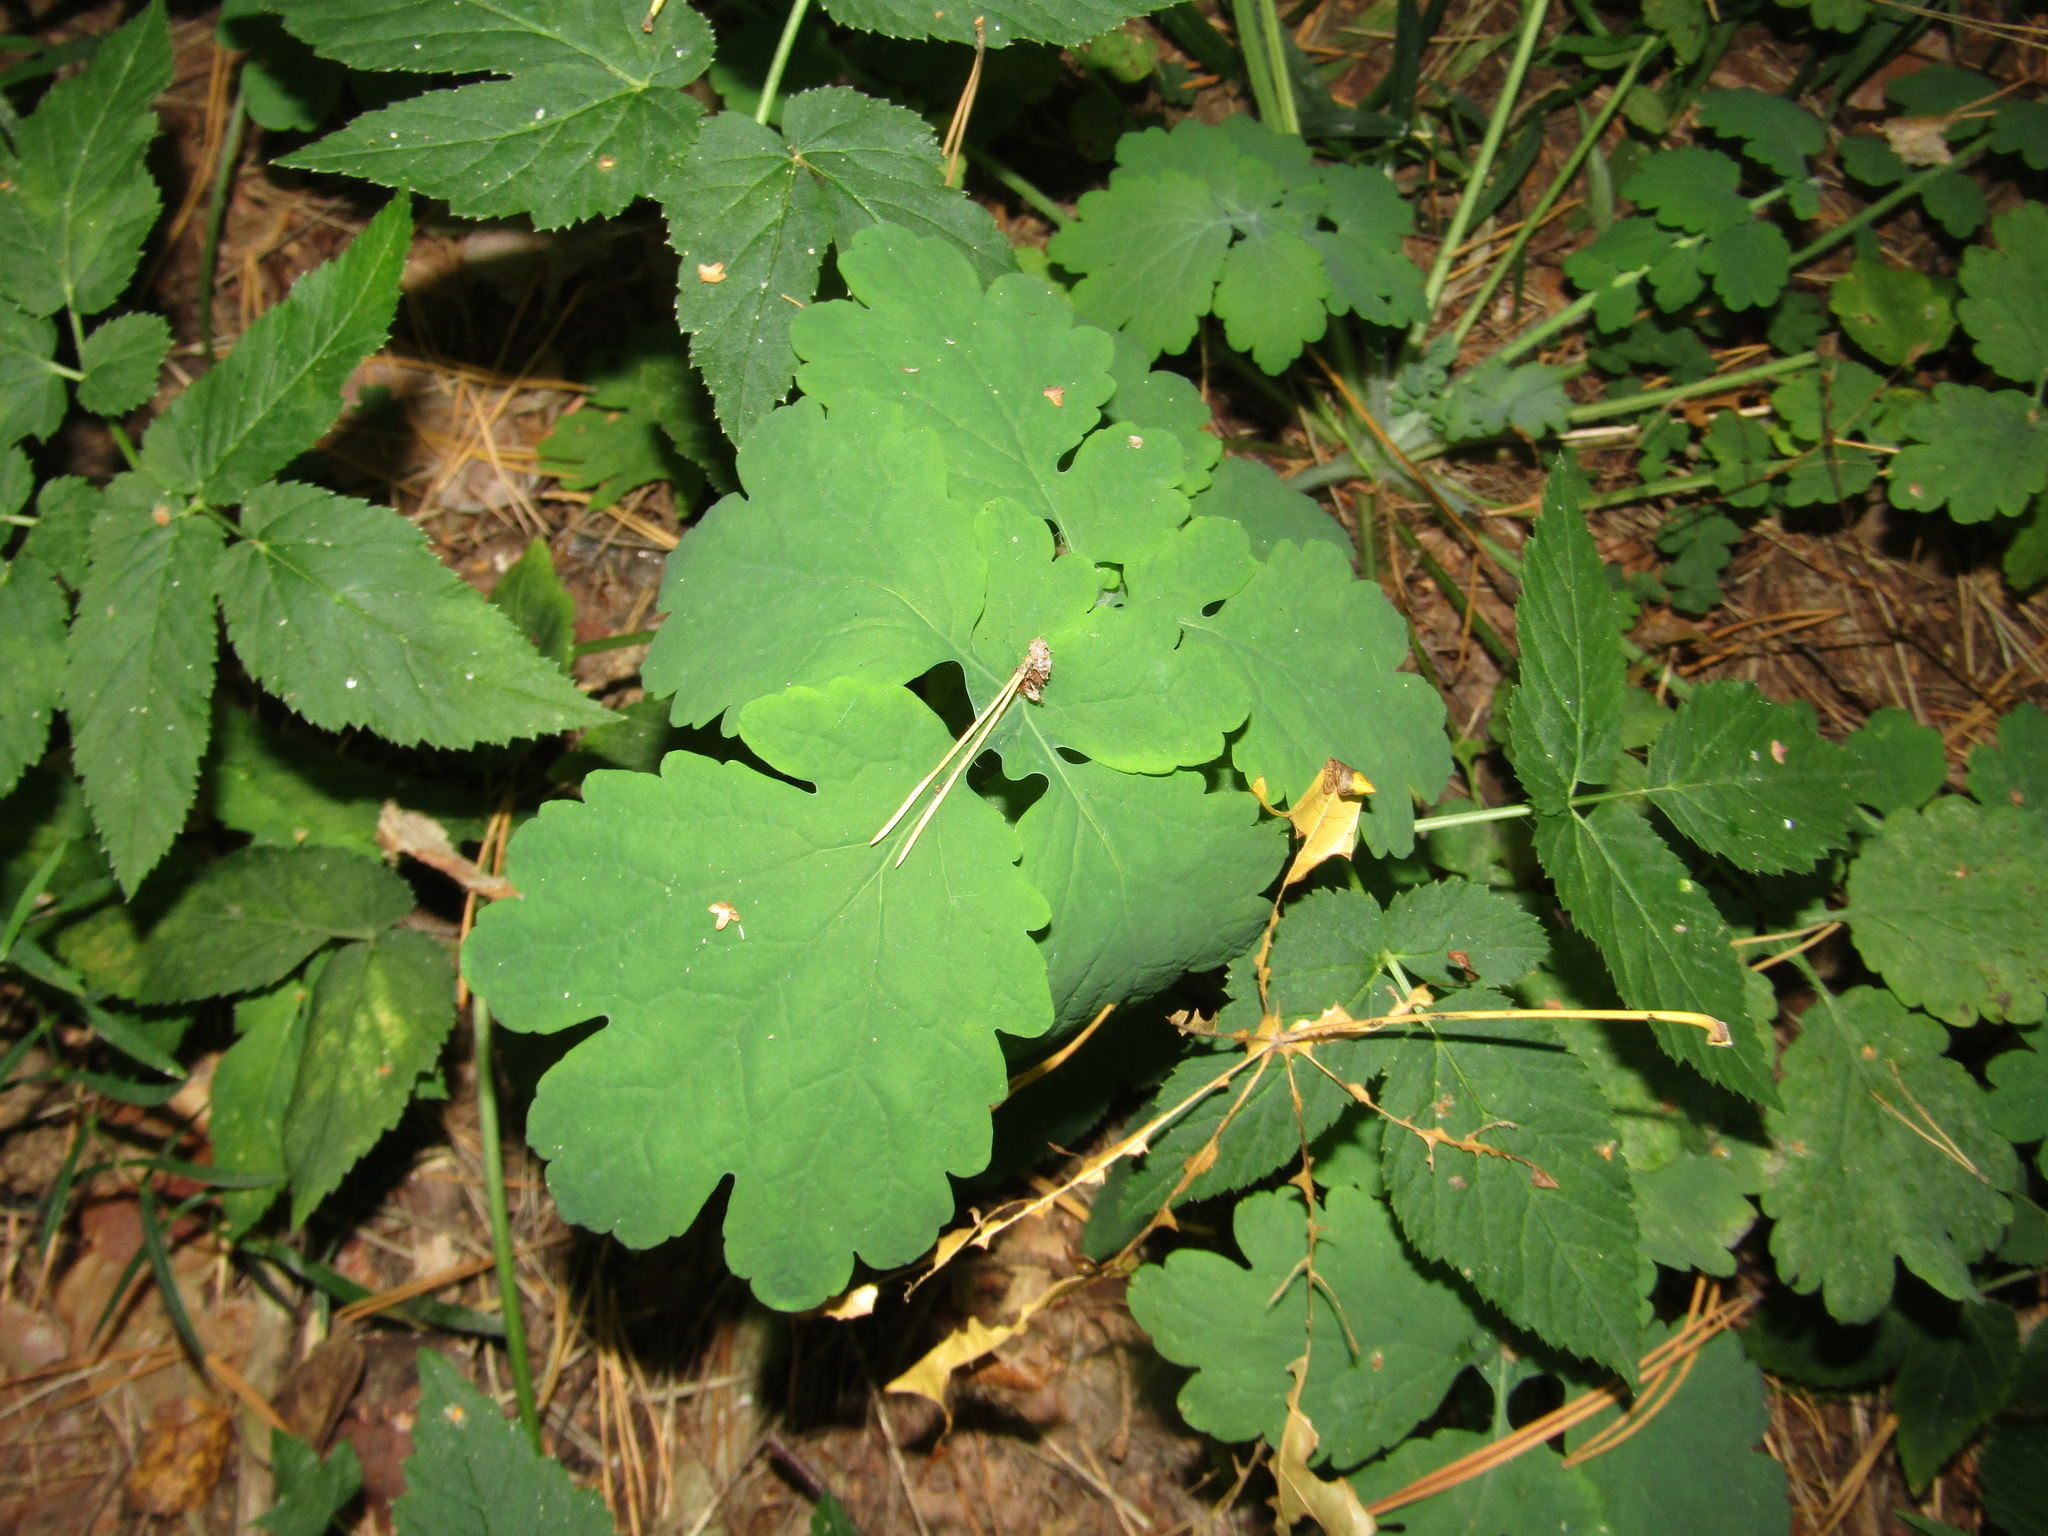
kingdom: Plantae
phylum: Tracheophyta
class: Magnoliopsida
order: Ranunculales
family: Papaveraceae
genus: Chelidonium
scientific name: Chelidonium majus
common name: Greater celandine
